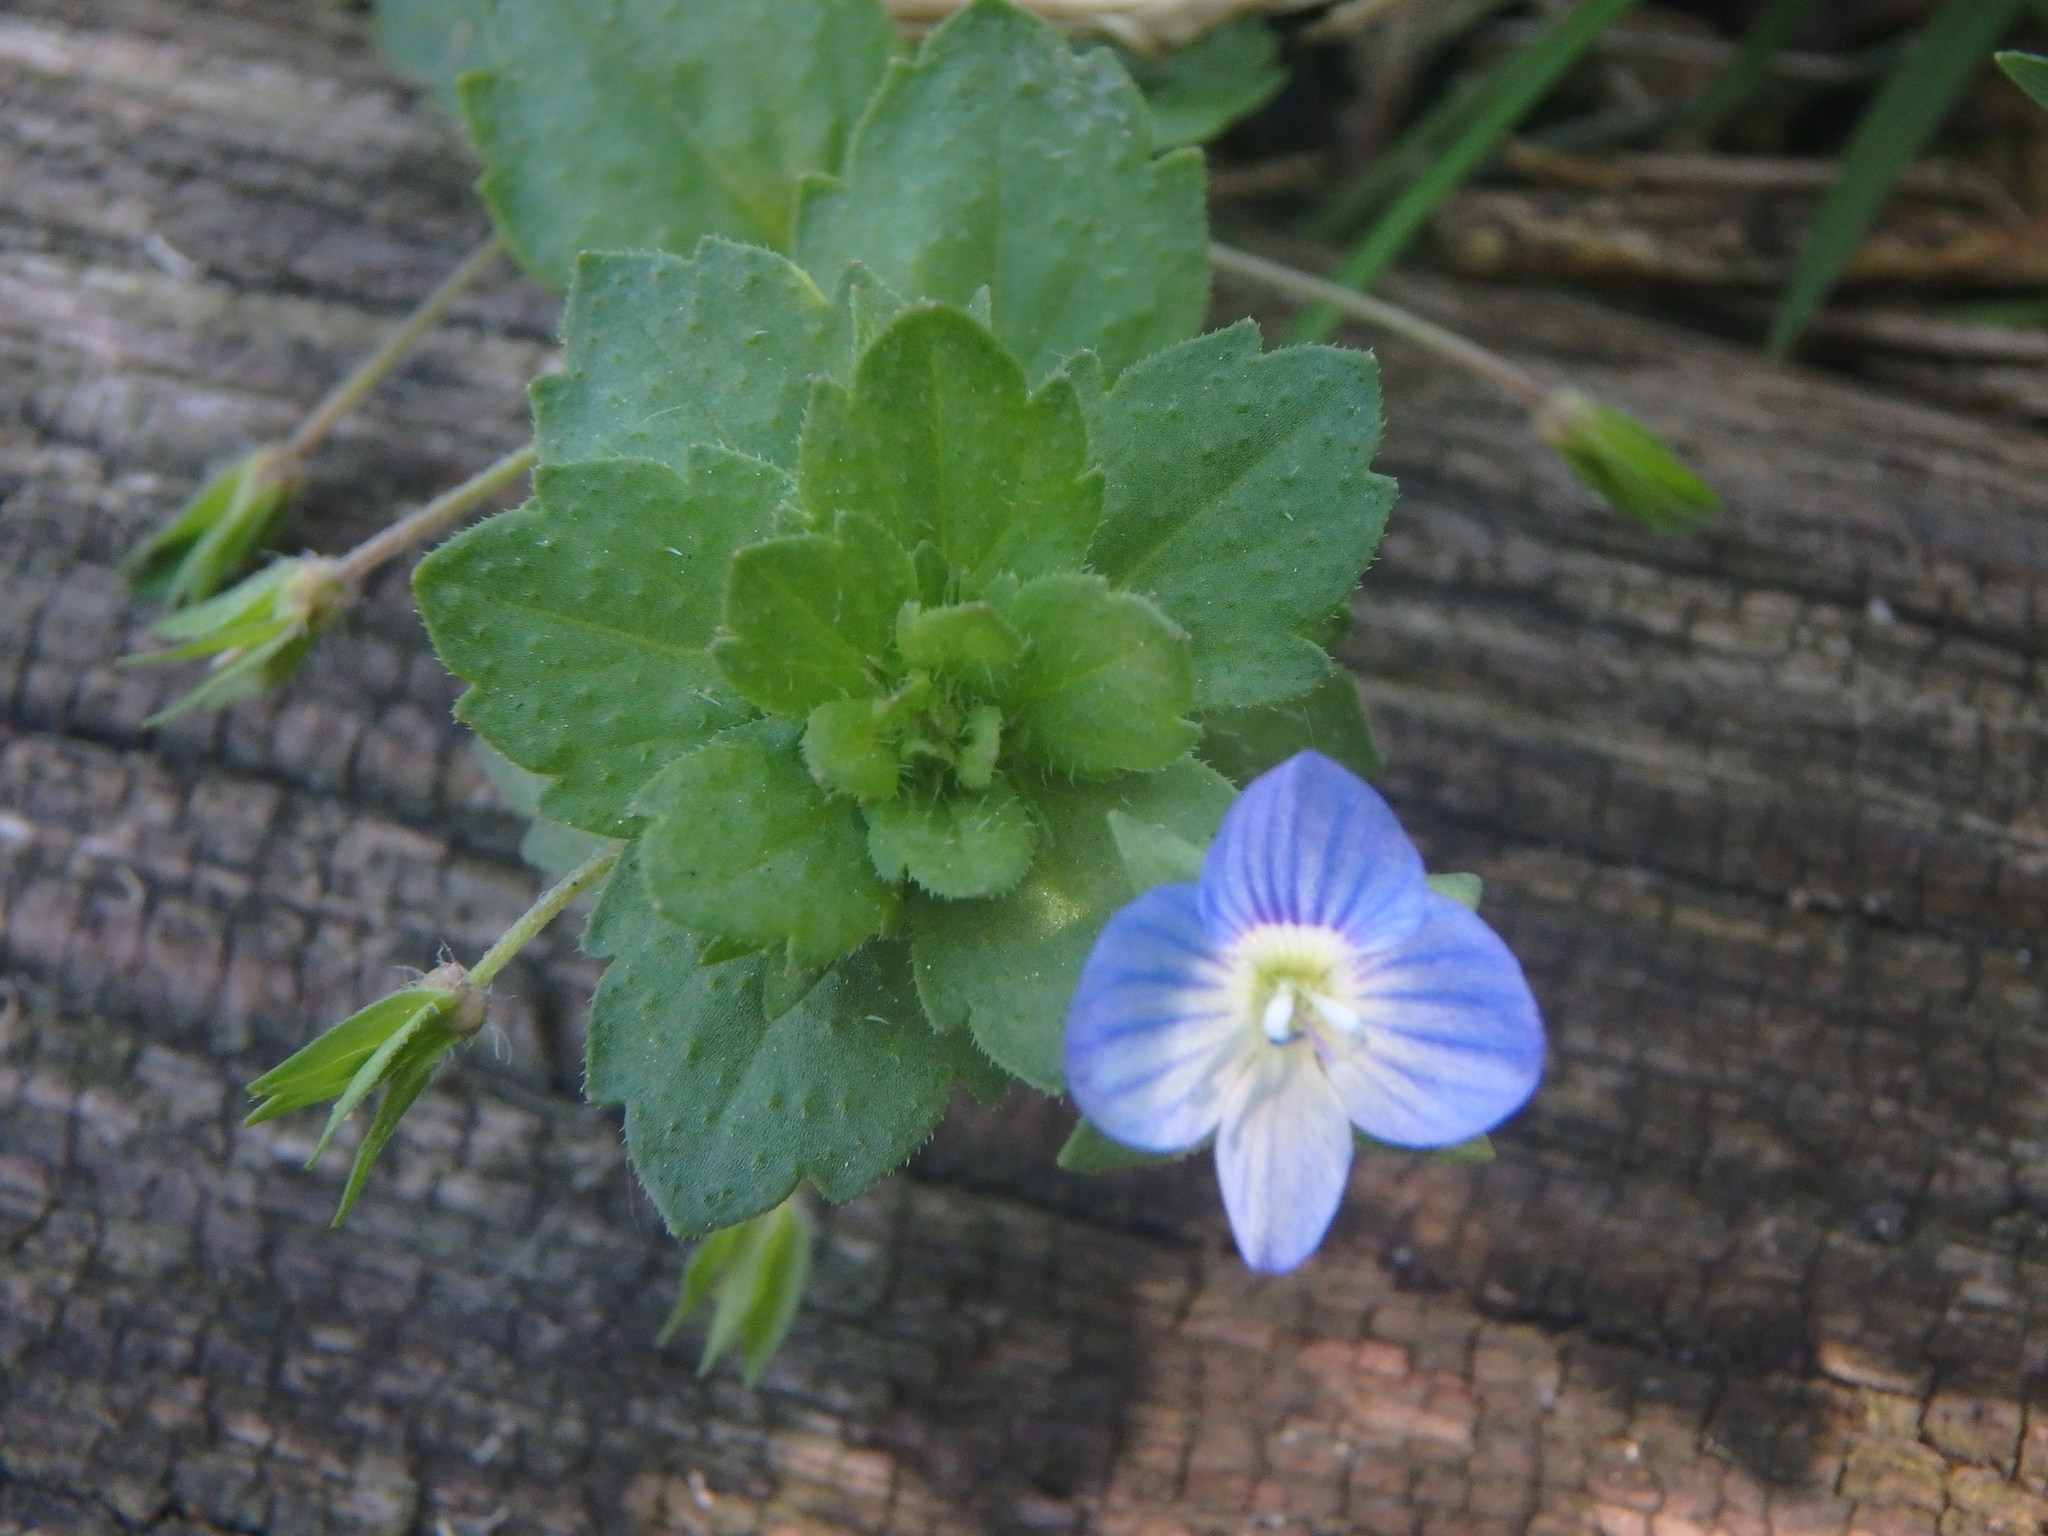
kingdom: Plantae
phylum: Tracheophyta
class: Magnoliopsida
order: Lamiales
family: Plantaginaceae
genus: Veronica
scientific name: Veronica persica
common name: Common field-speedwell
